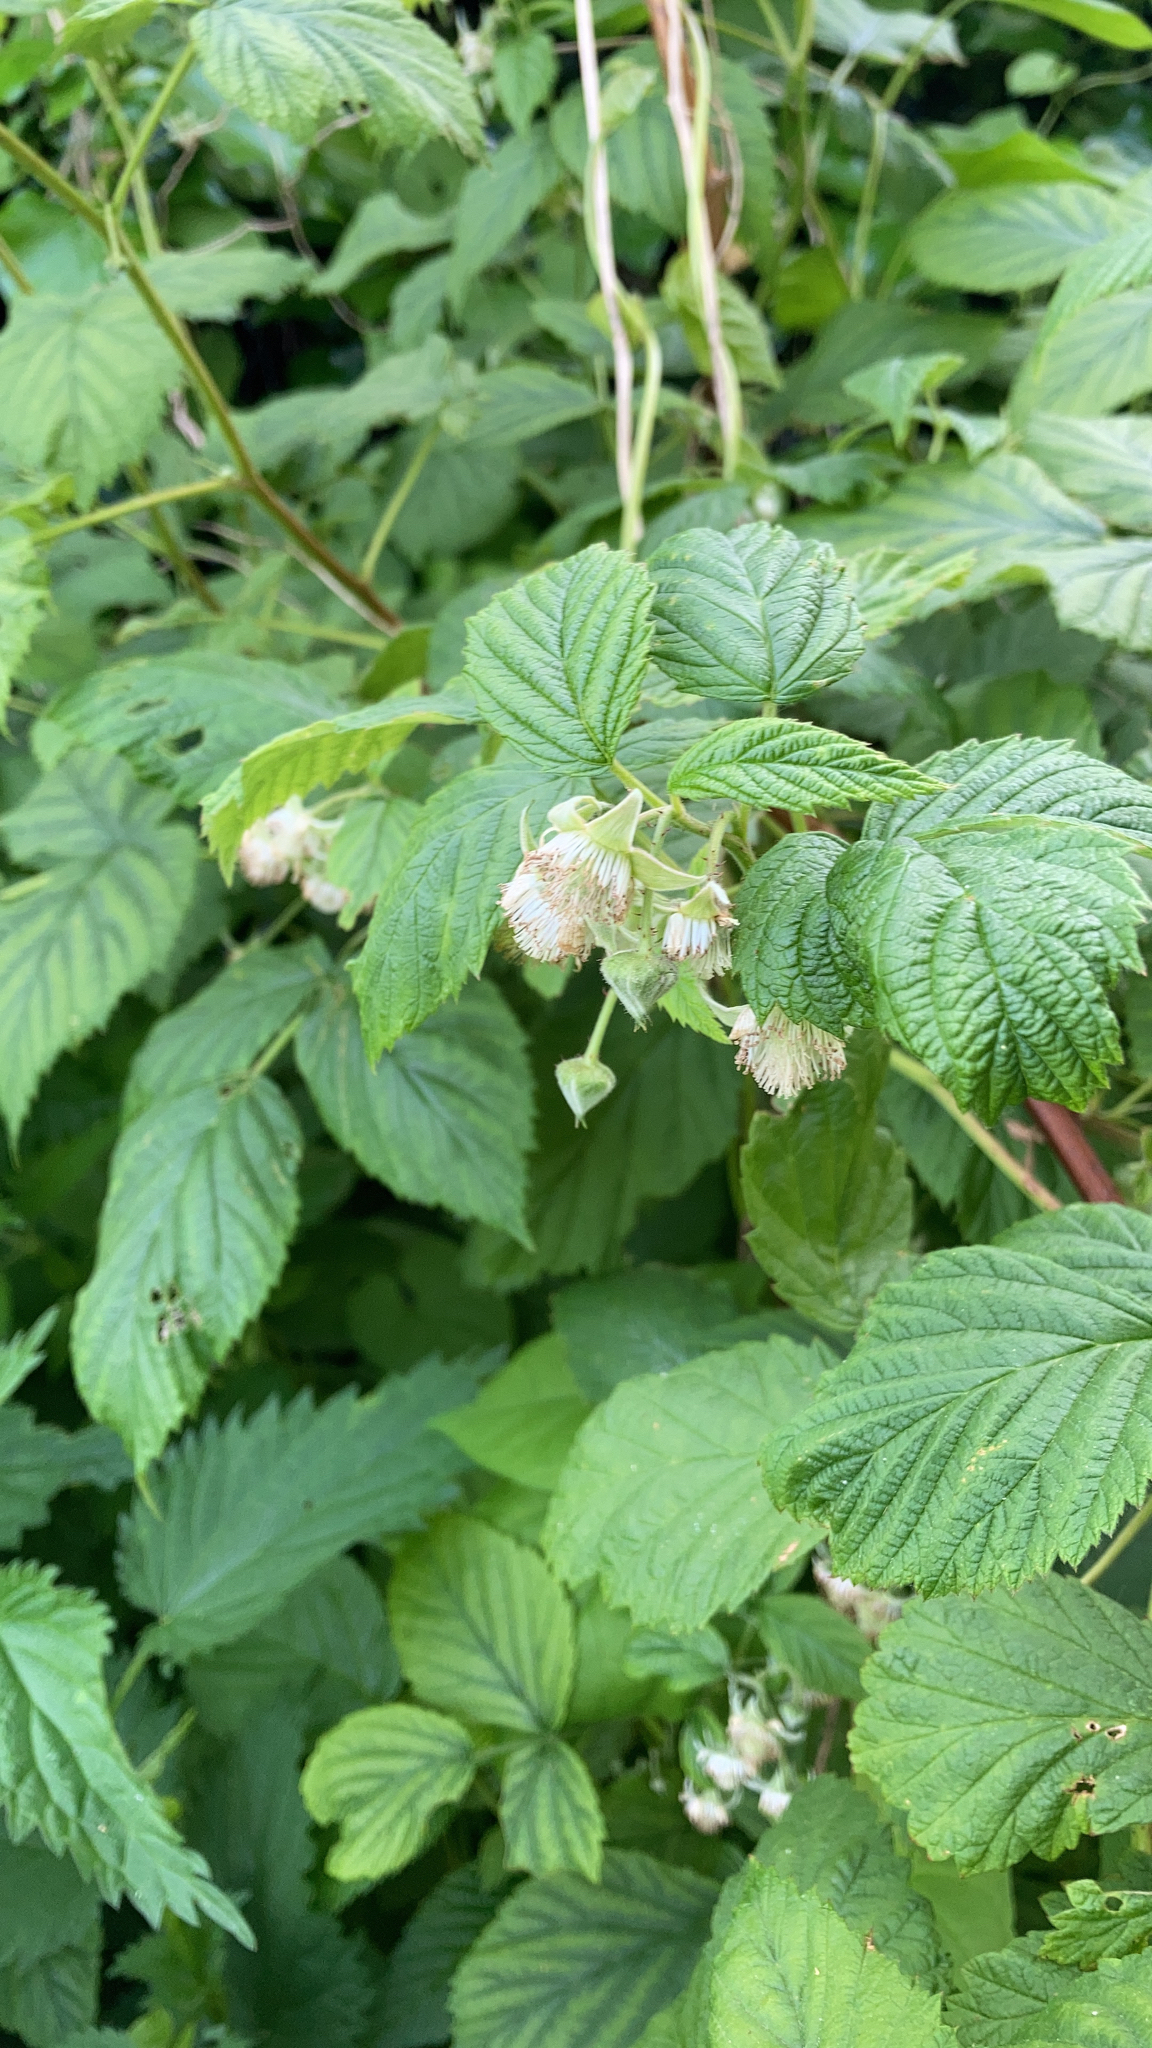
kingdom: Plantae
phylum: Tracheophyta
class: Magnoliopsida
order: Rosales
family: Rosaceae
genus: Rubus
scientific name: Rubus idaeus
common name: Raspberry
